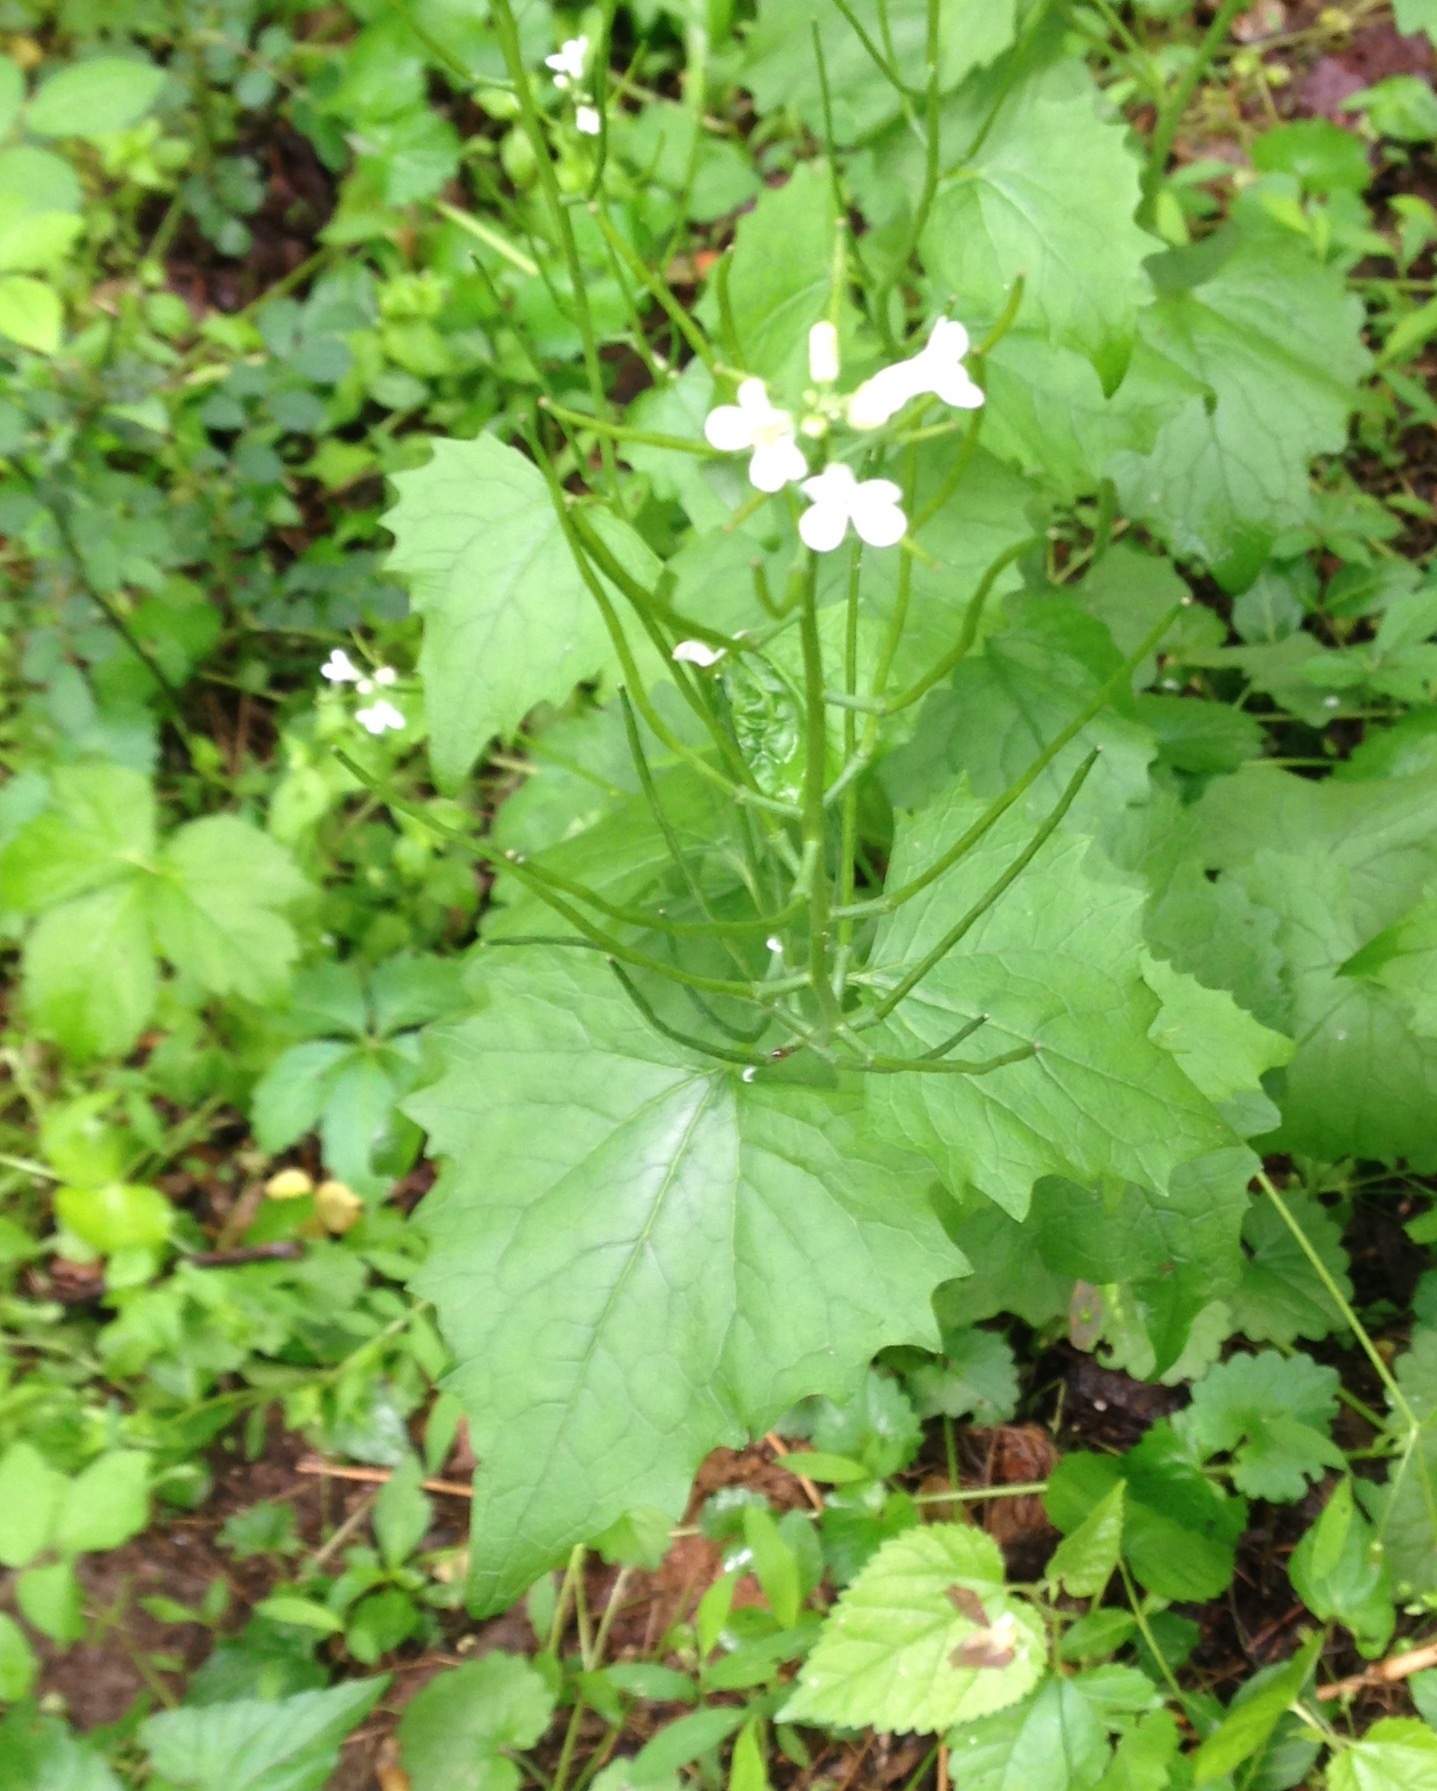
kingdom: Plantae
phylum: Tracheophyta
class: Magnoliopsida
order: Brassicales
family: Brassicaceae
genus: Alliaria
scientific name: Alliaria petiolata
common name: Garlic mustard
